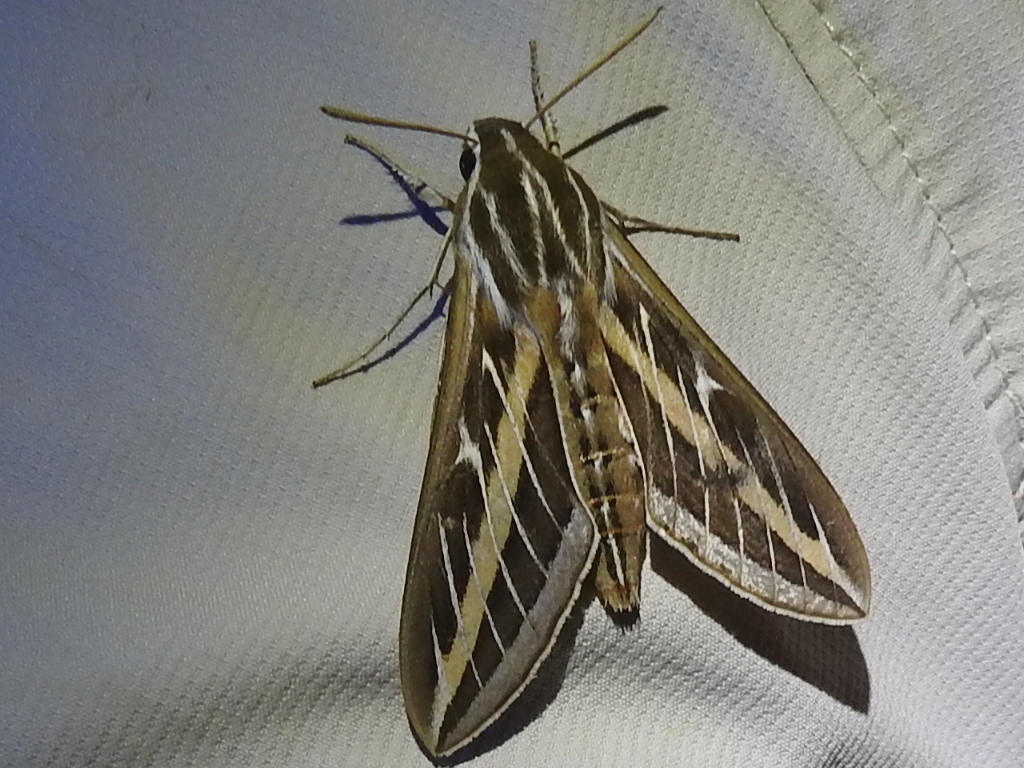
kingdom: Animalia
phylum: Arthropoda
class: Insecta
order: Lepidoptera
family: Sphingidae
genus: Hyles
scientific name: Hyles lineata
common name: White-lined sphinx
